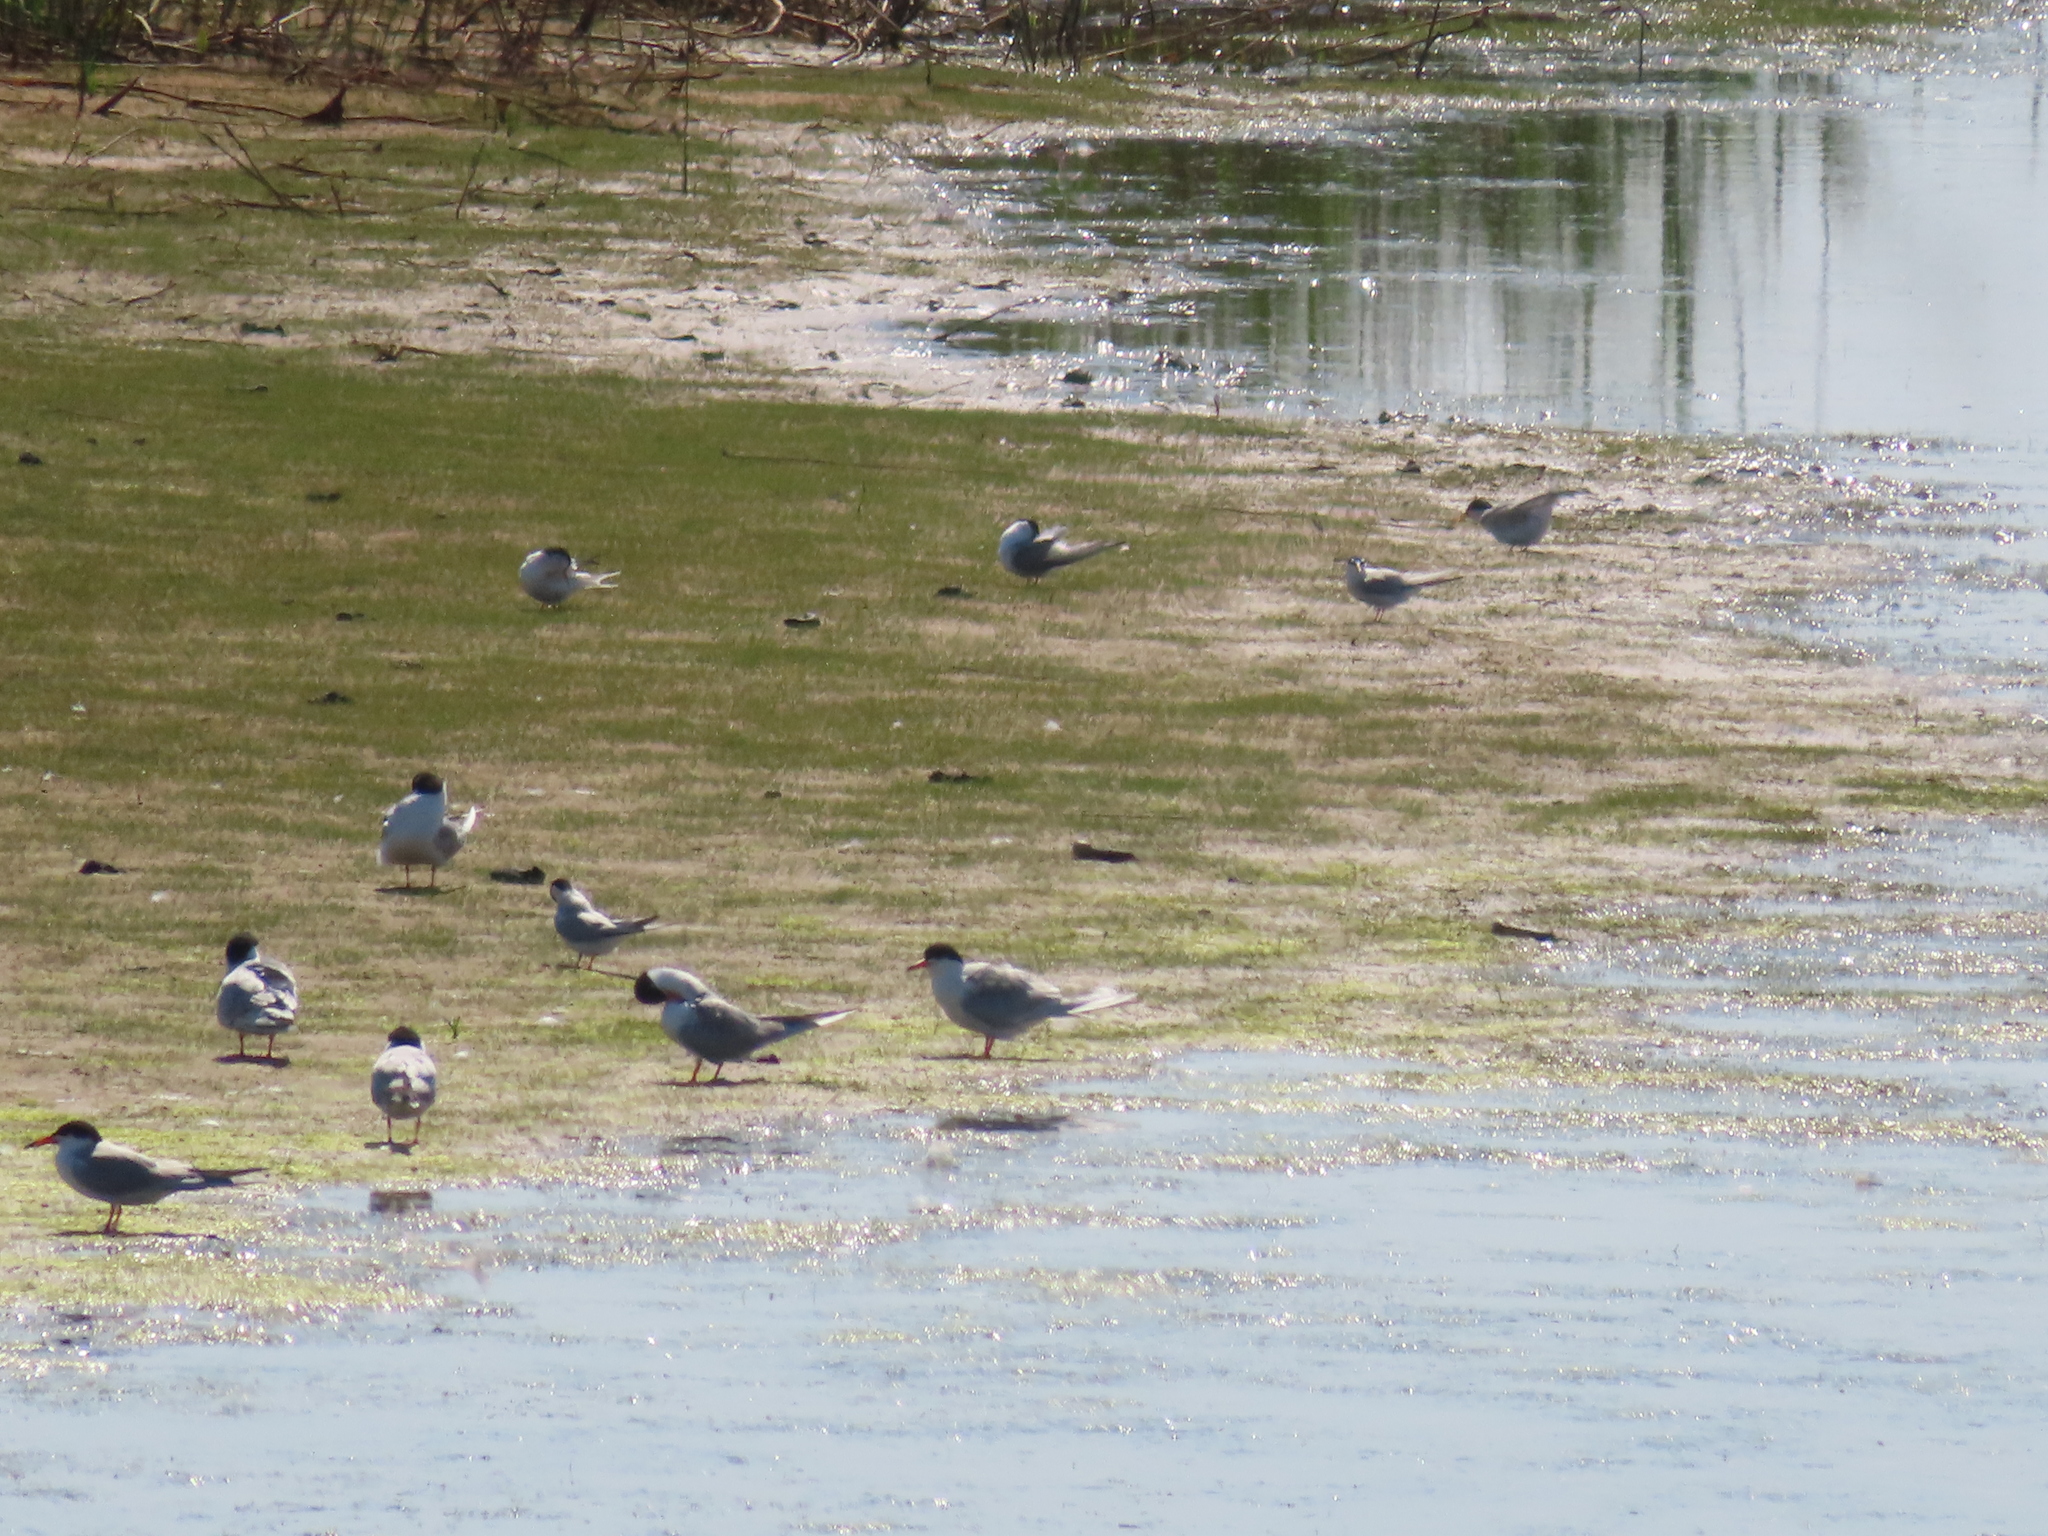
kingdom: Animalia
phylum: Chordata
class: Aves
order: Charadriiformes
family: Laridae
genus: Sterna
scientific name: Sterna forsteri
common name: Forster's tern
